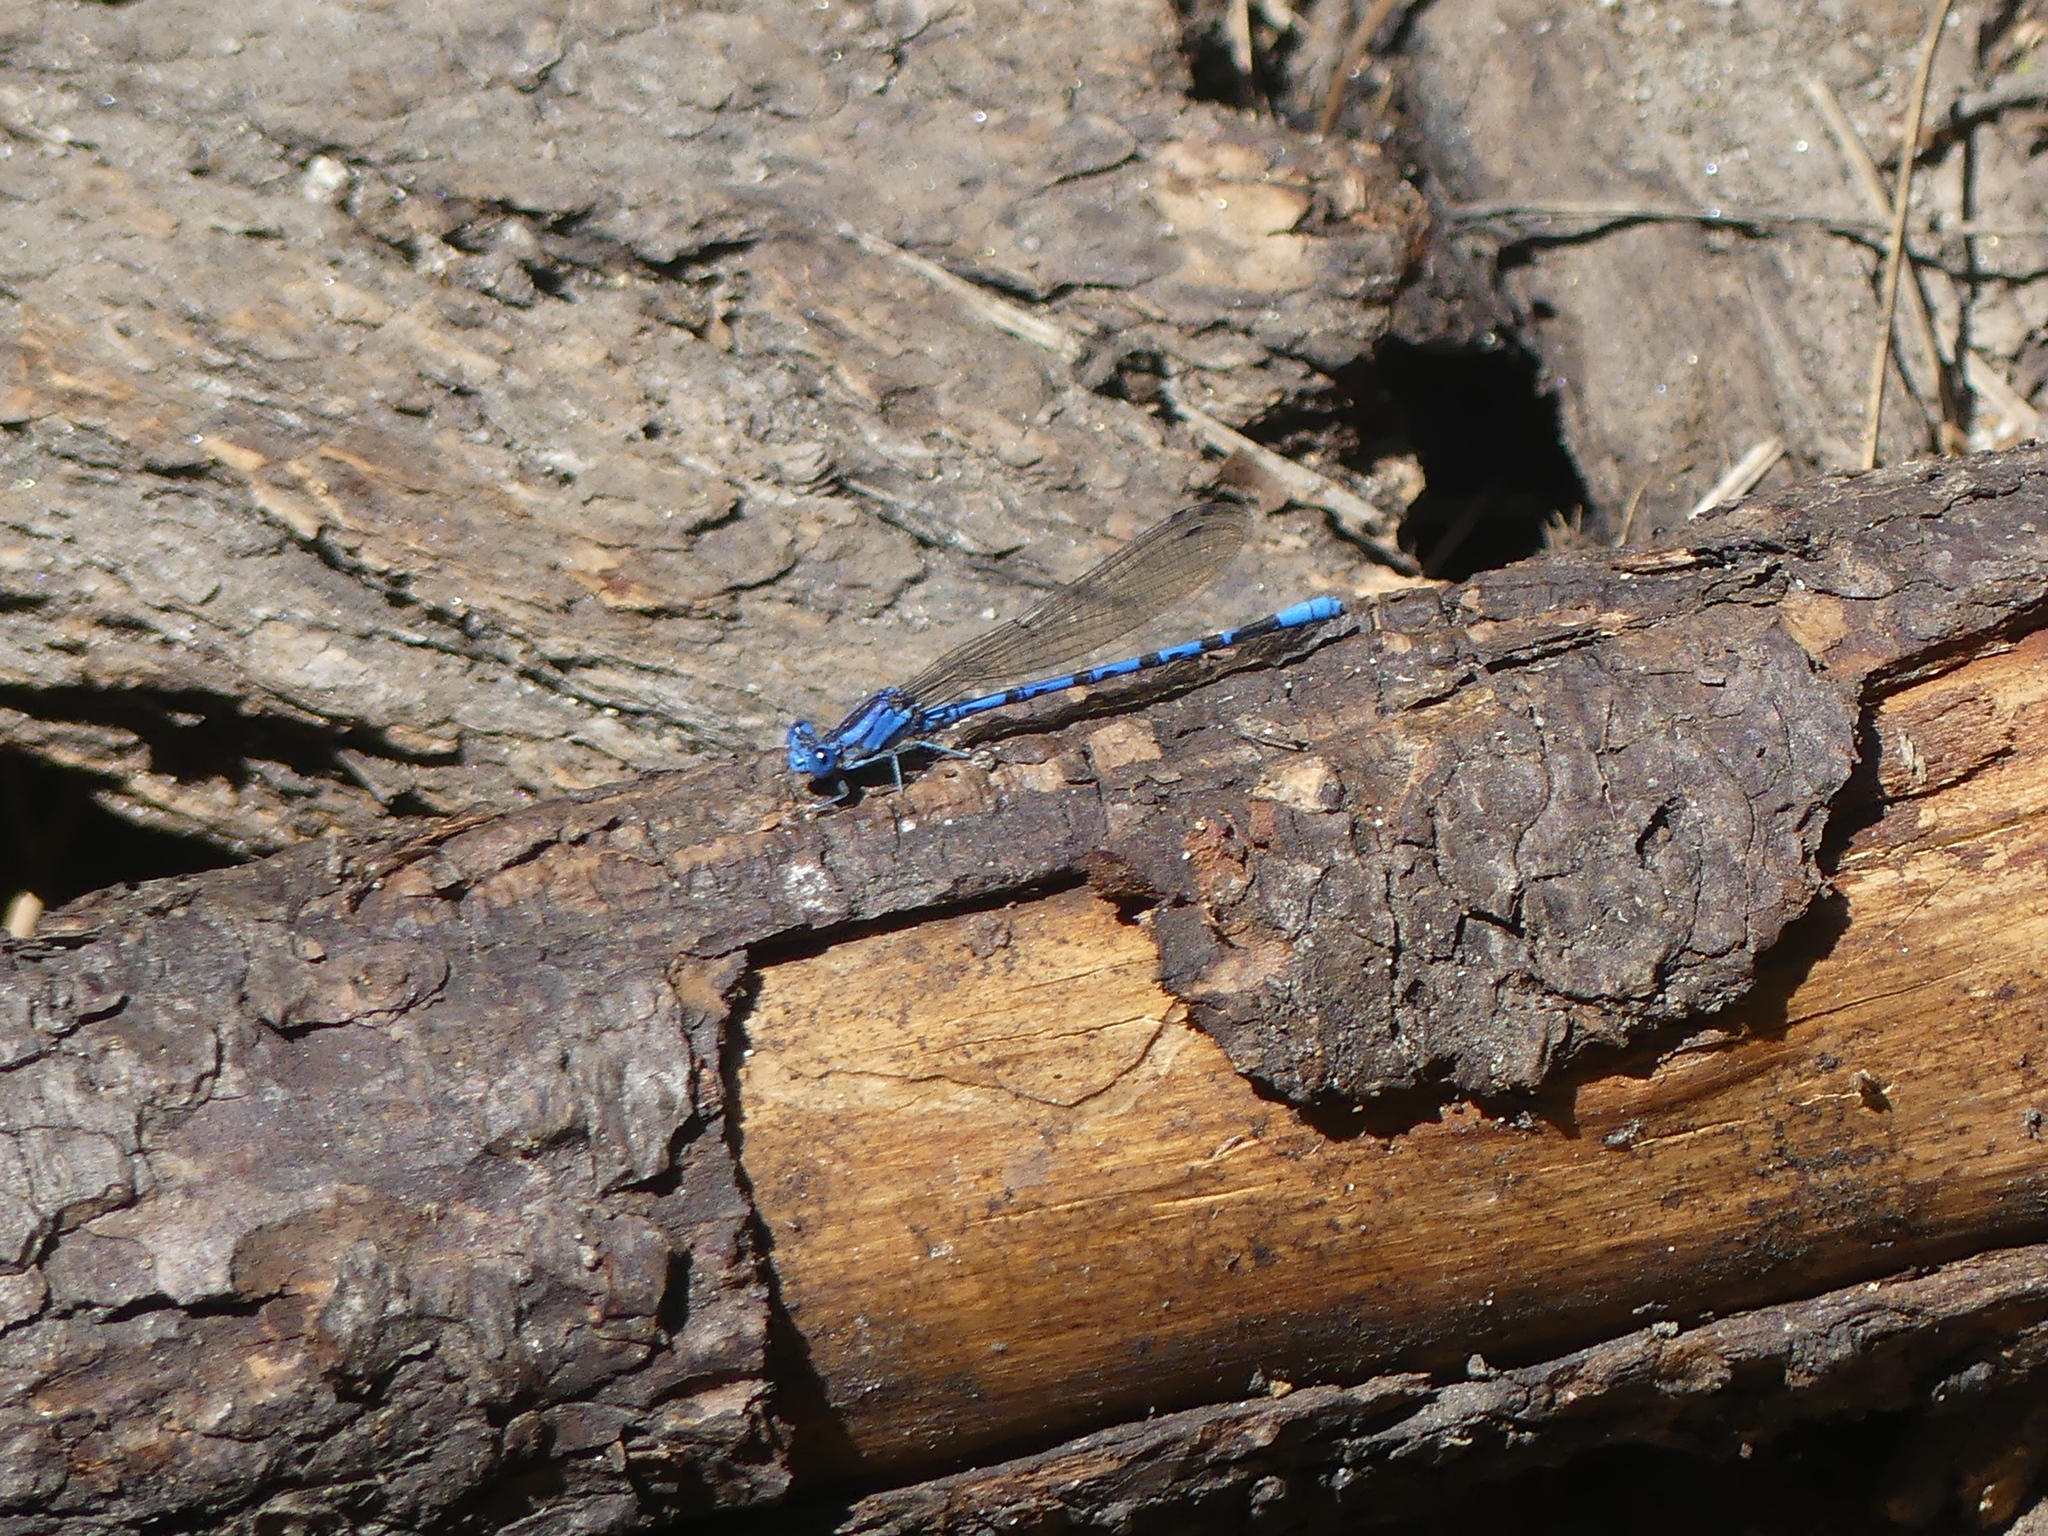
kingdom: Animalia
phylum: Arthropoda
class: Insecta
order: Odonata
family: Coenagrionidae
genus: Argia
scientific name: Argia vivida
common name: Vivid dancer
